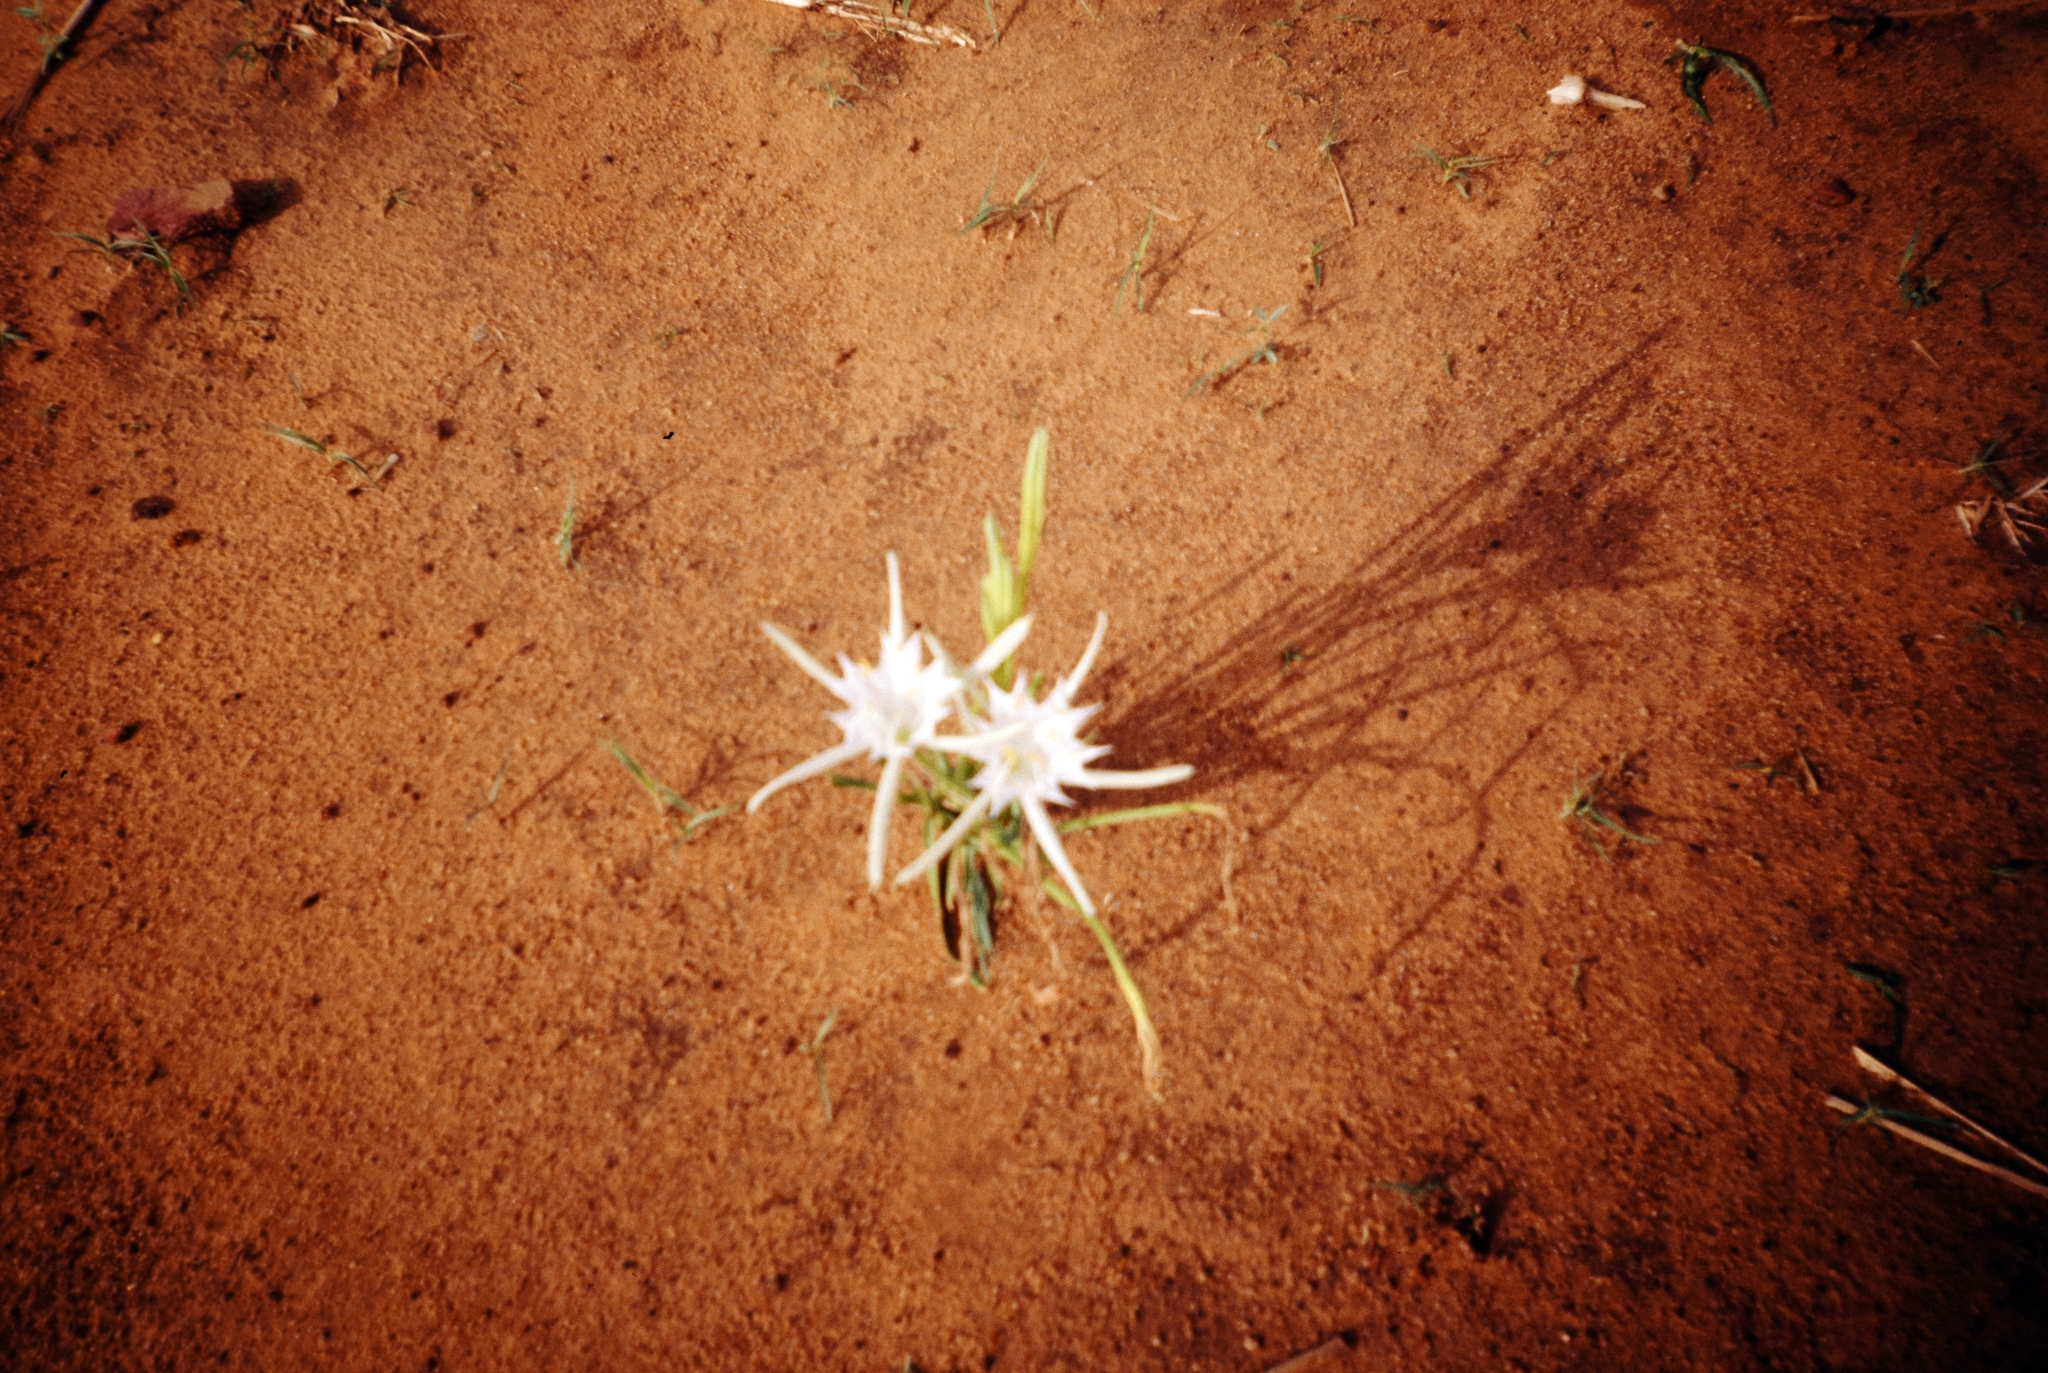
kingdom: Plantae
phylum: Tracheophyta
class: Liliopsida
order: Asparagales
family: Amaryllidaceae
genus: Pancratium
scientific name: Pancratium tenuifolium
